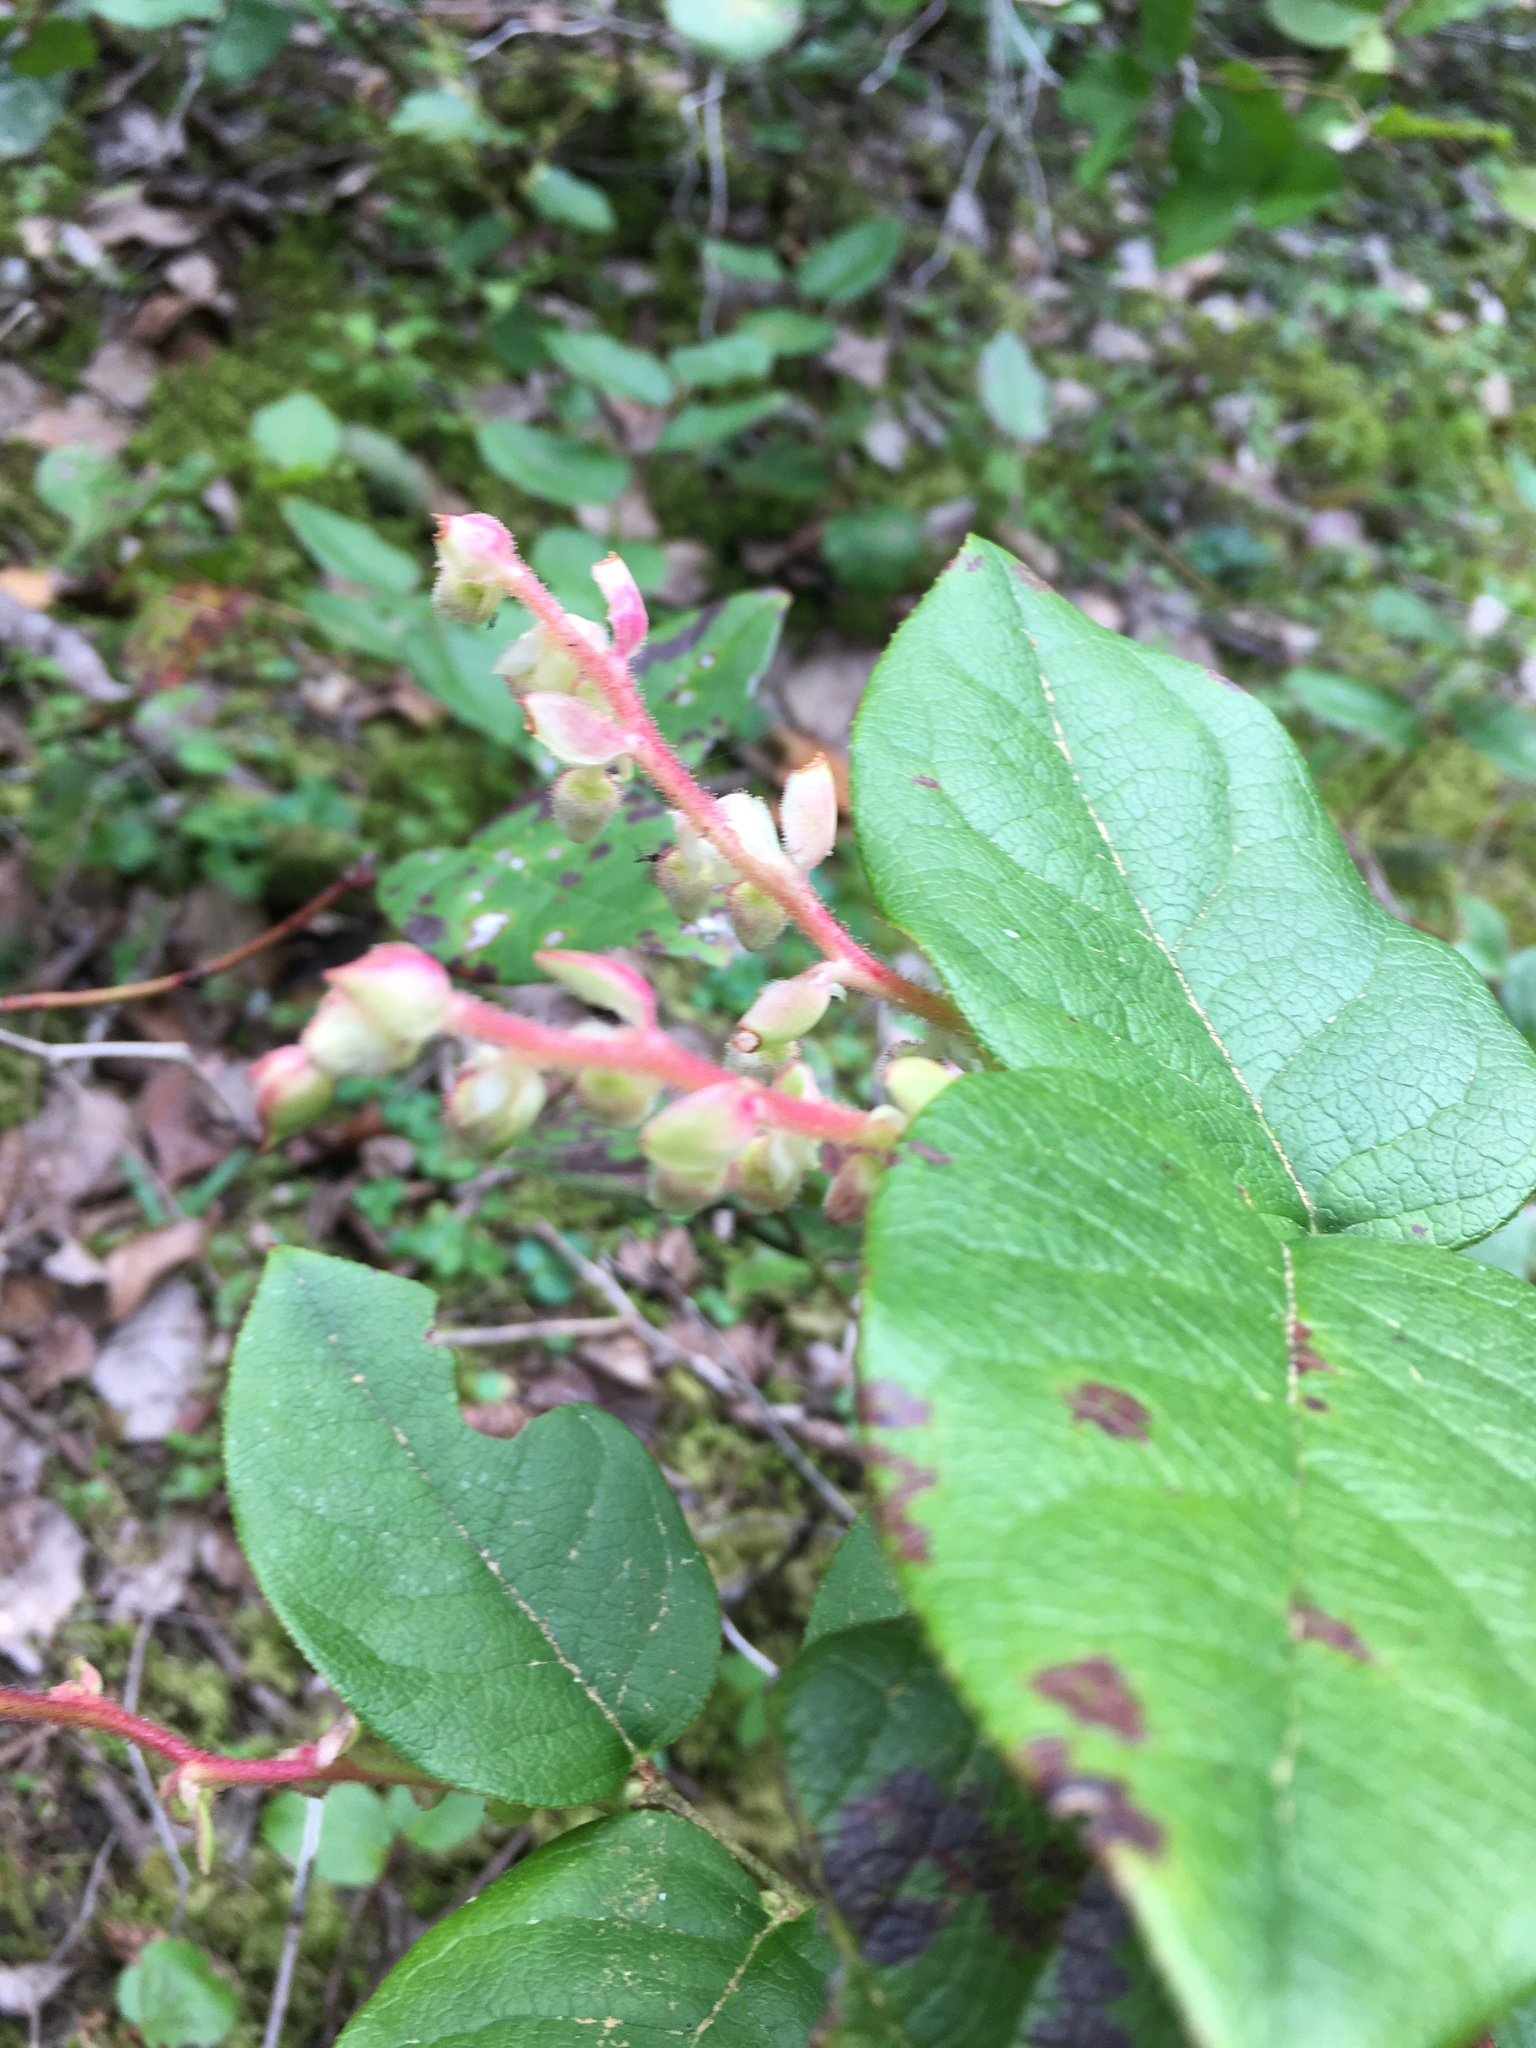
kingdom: Plantae
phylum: Tracheophyta
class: Magnoliopsida
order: Ericales
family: Ericaceae
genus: Gaultheria
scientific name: Gaultheria shallon
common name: Shallon
